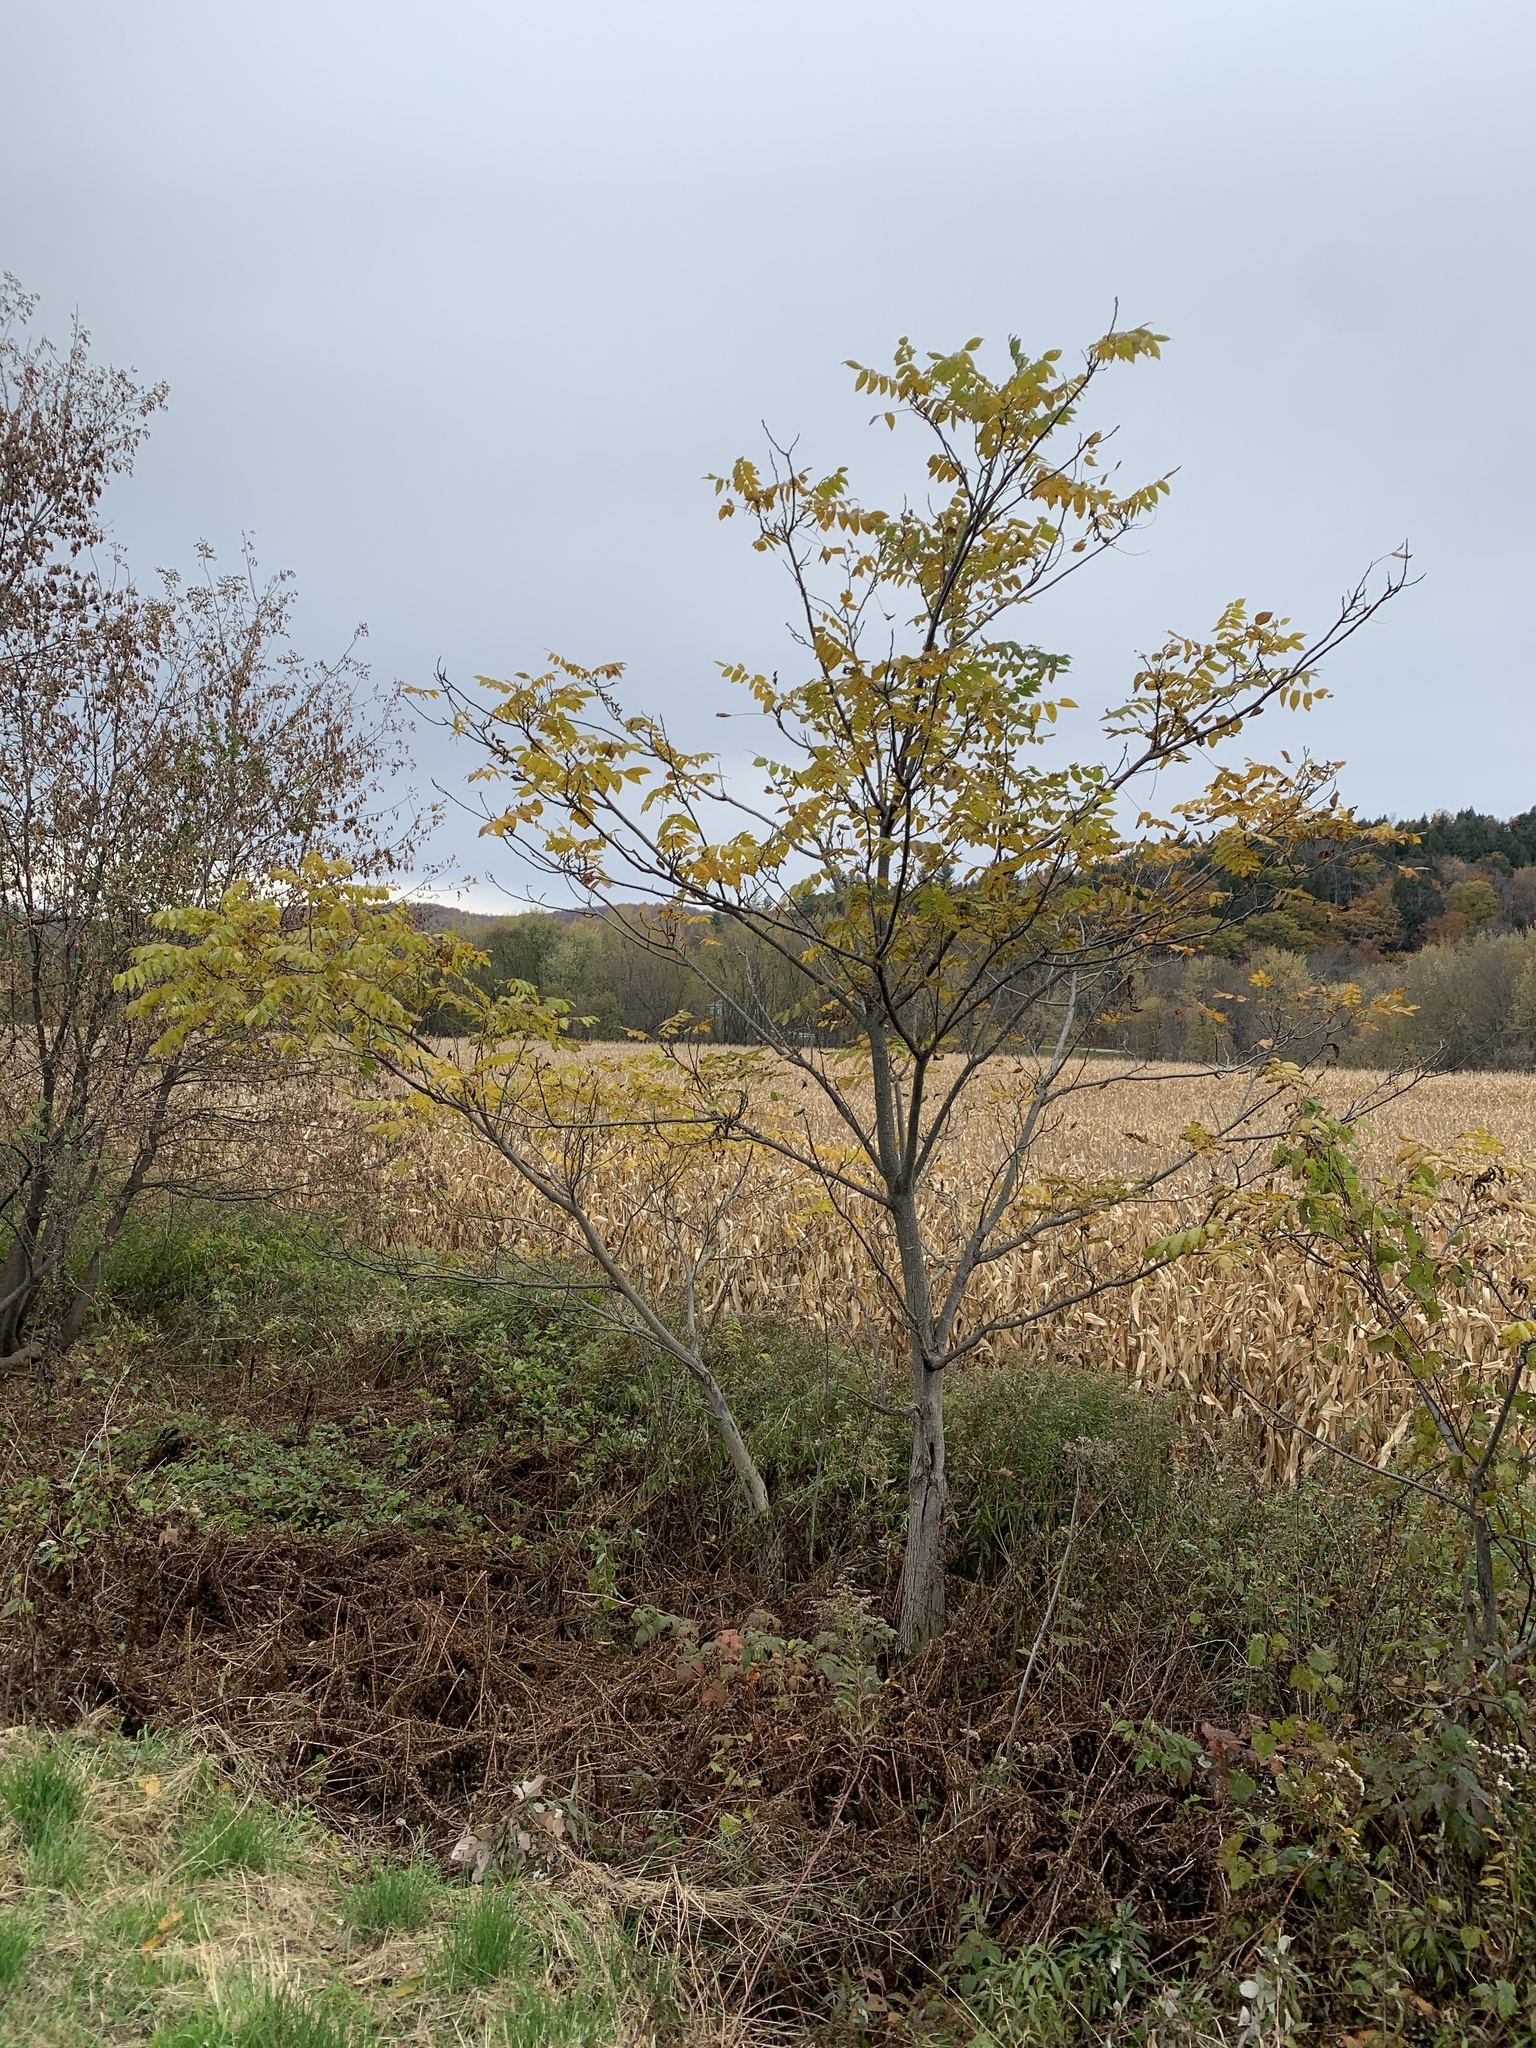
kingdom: Plantae
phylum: Tracheophyta
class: Magnoliopsida
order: Fagales
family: Juglandaceae
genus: Juglans
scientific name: Juglans cinerea
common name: Butternut
